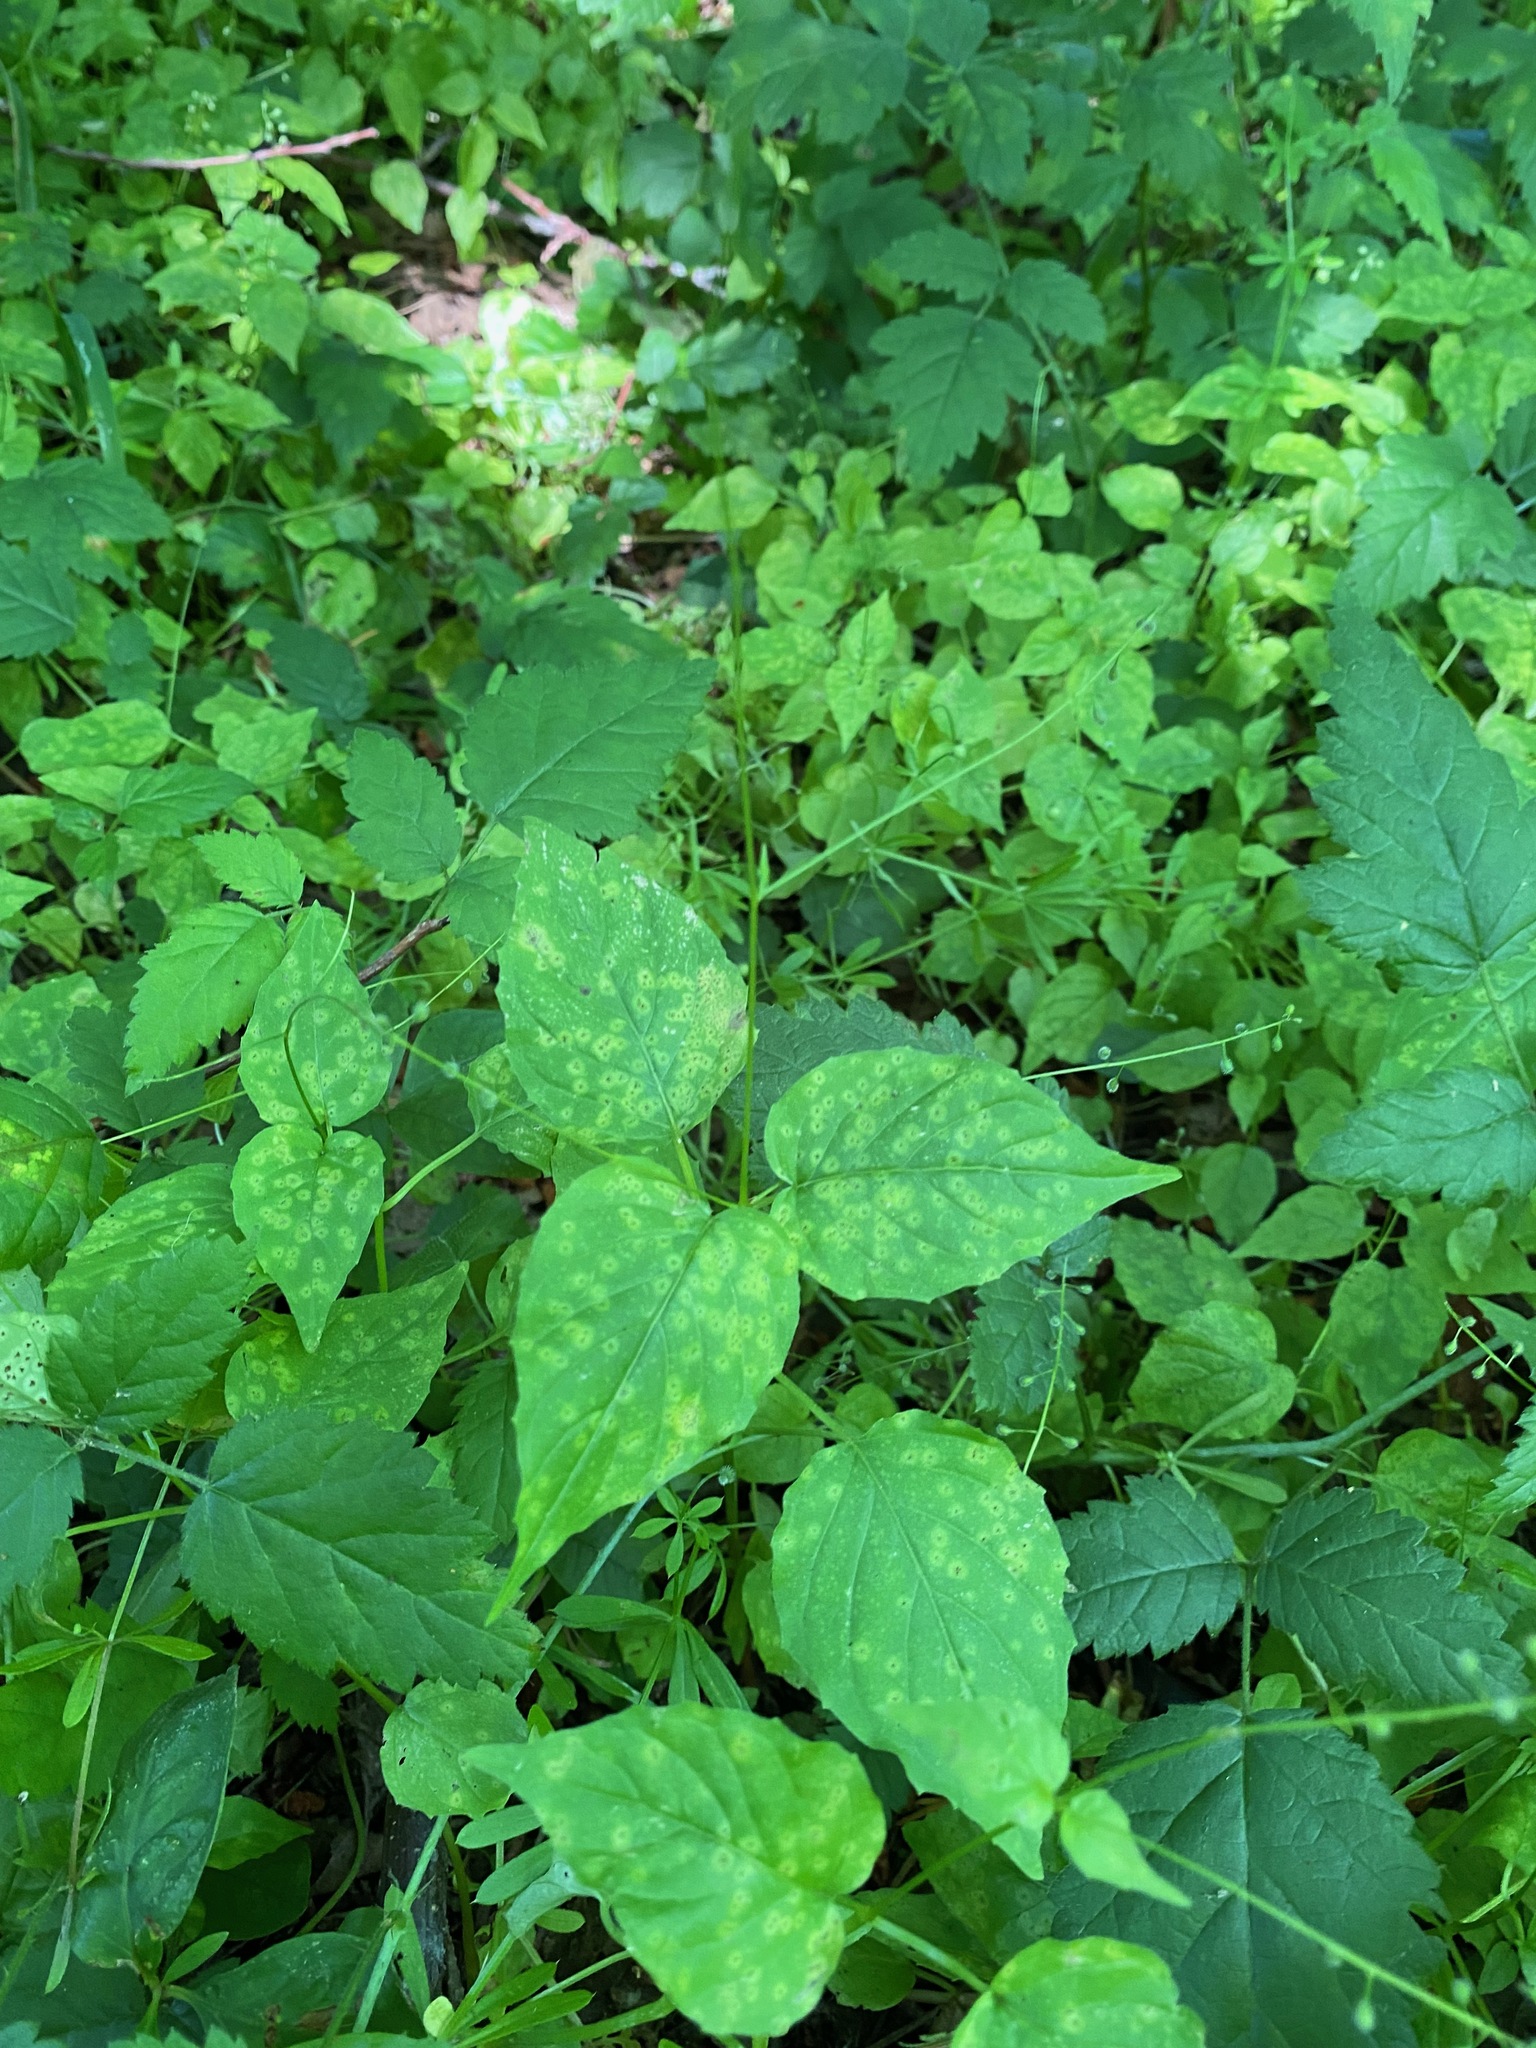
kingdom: Plantae
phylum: Tracheophyta
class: Magnoliopsida
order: Myrtales
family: Onagraceae
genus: Circaea
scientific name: Circaea alpina
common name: Alpine enchanter's-nightshade
